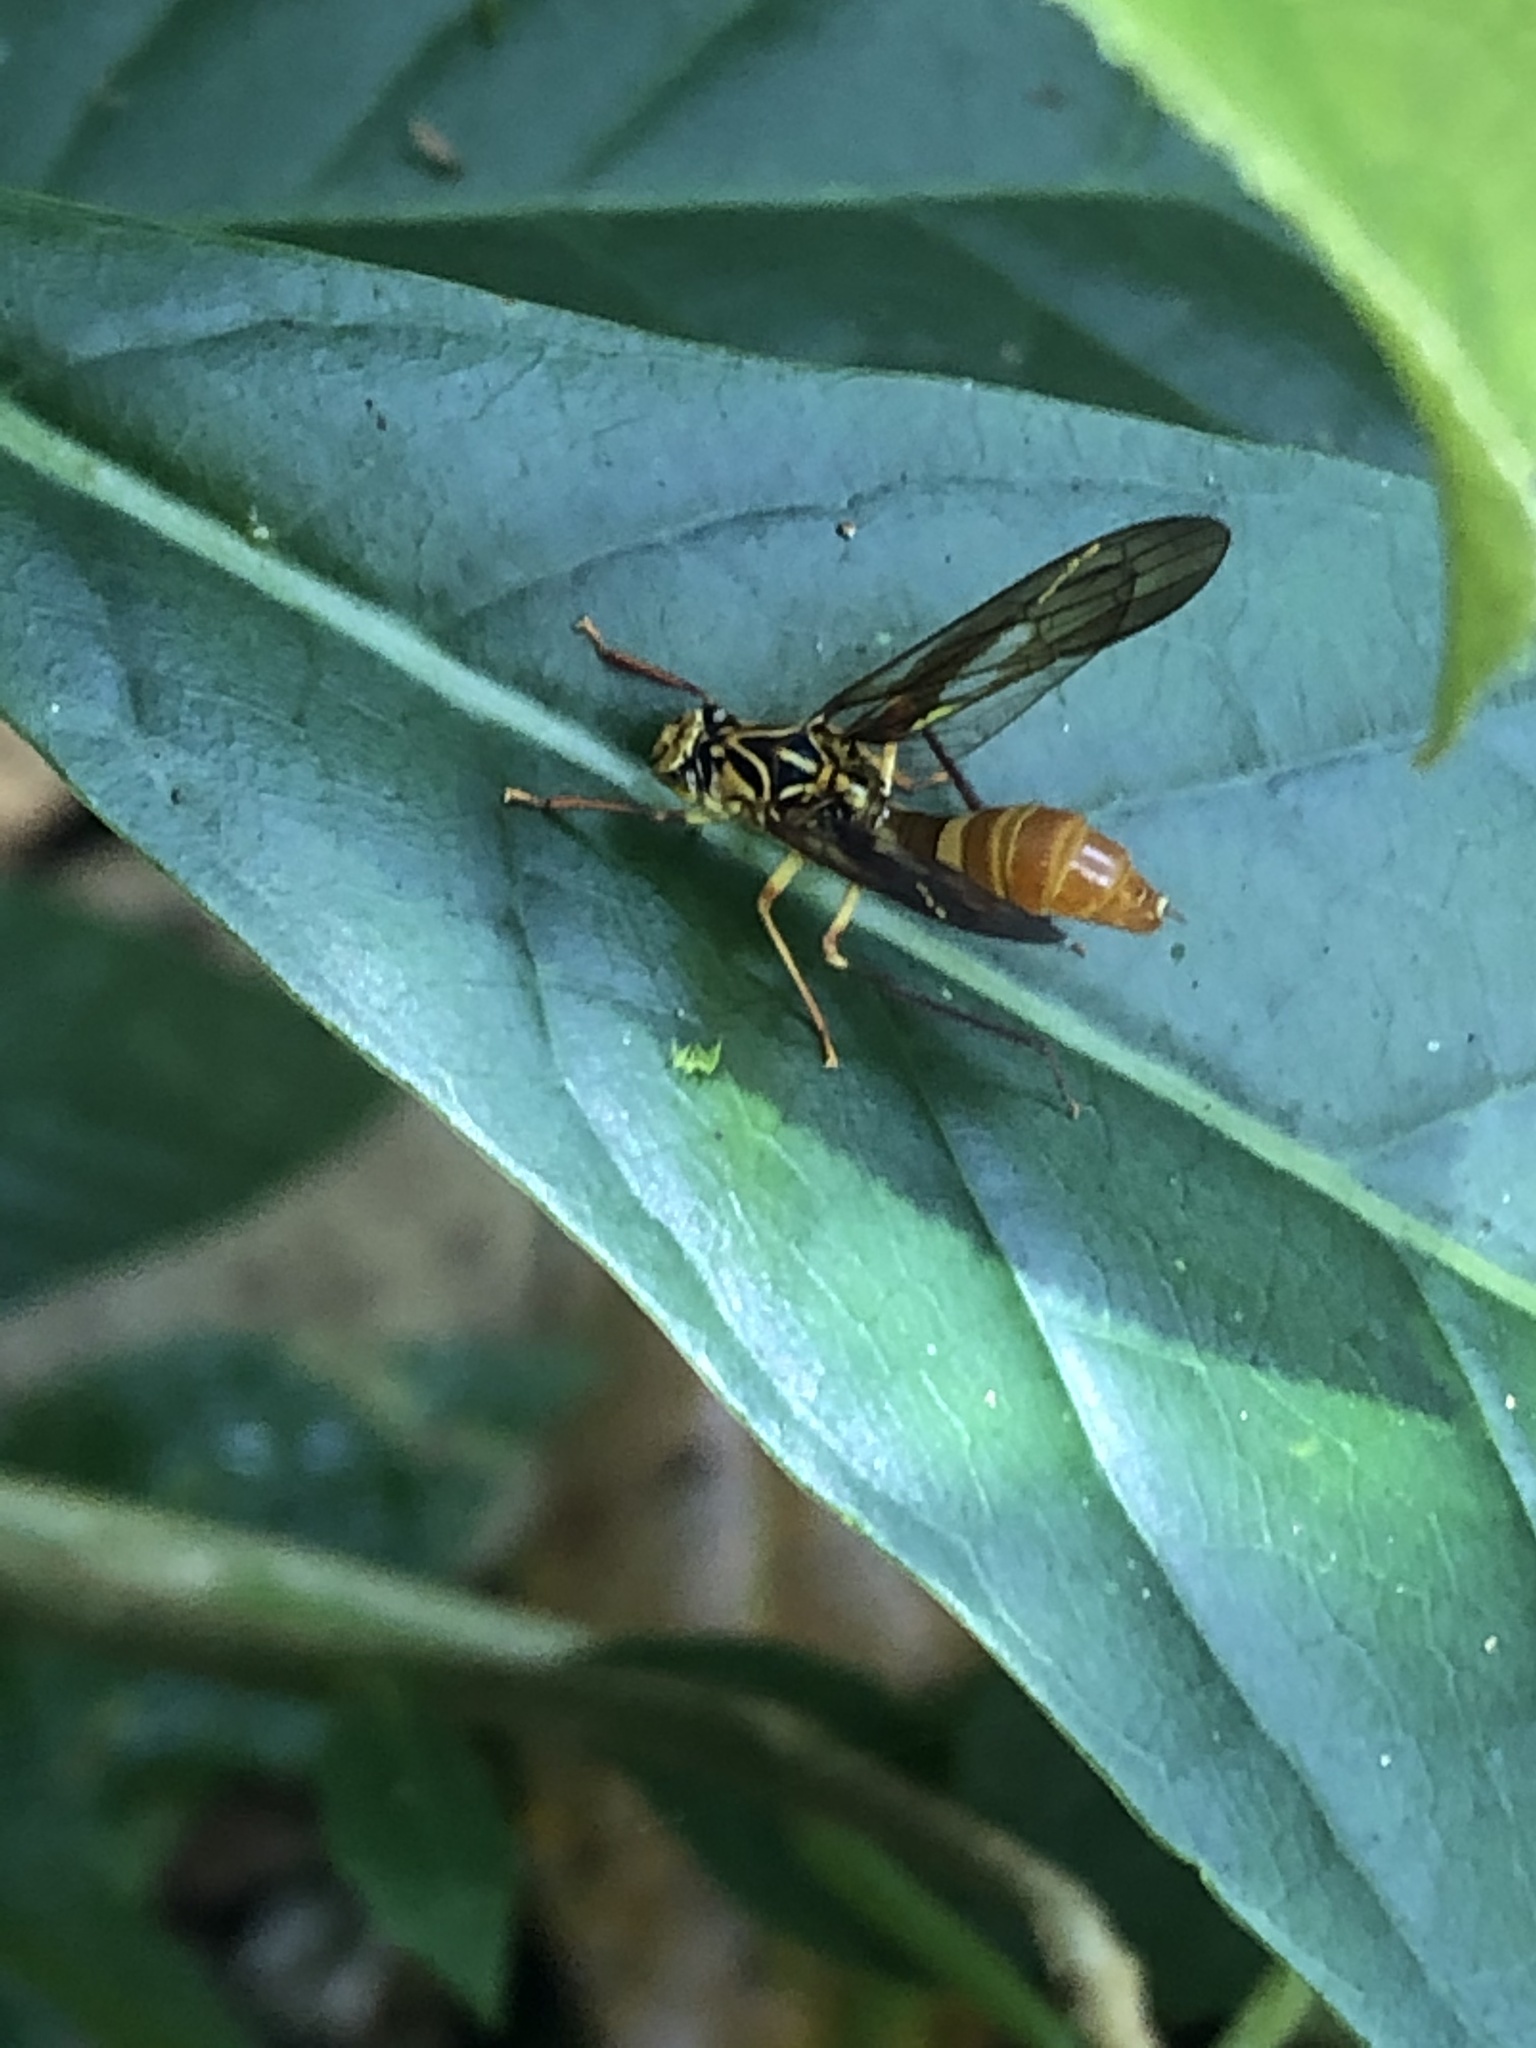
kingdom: Animalia
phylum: Arthropoda
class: Insecta
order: Hemiptera
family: Cicadellidae
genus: Lissoscarta
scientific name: Lissoscarta
